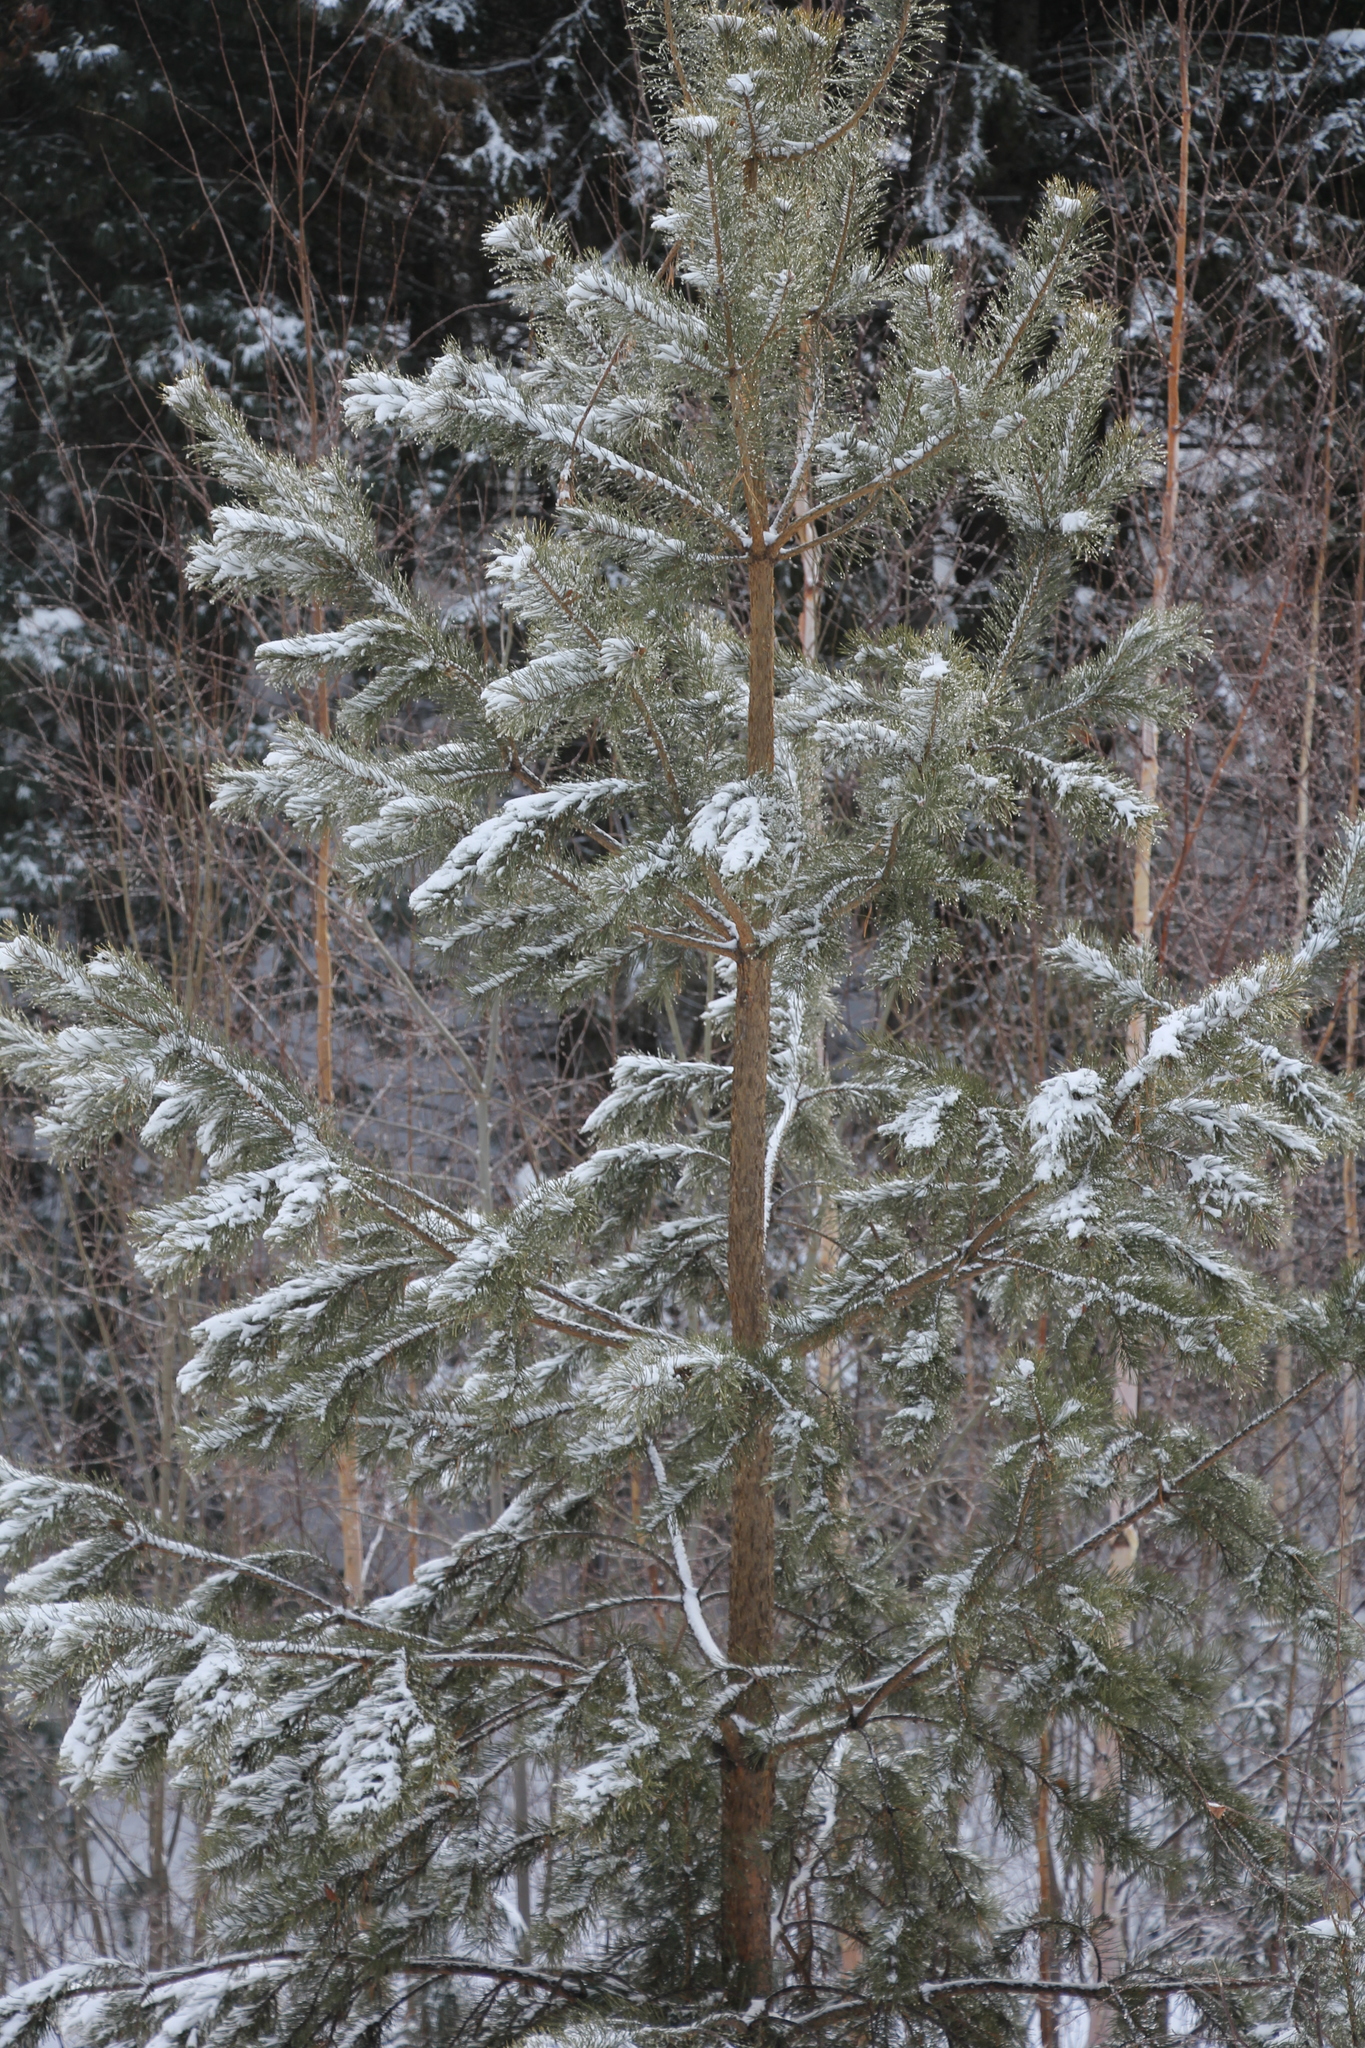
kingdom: Plantae
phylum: Tracheophyta
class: Pinopsida
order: Pinales
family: Pinaceae
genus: Pinus
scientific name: Pinus sylvestris
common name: Scots pine
